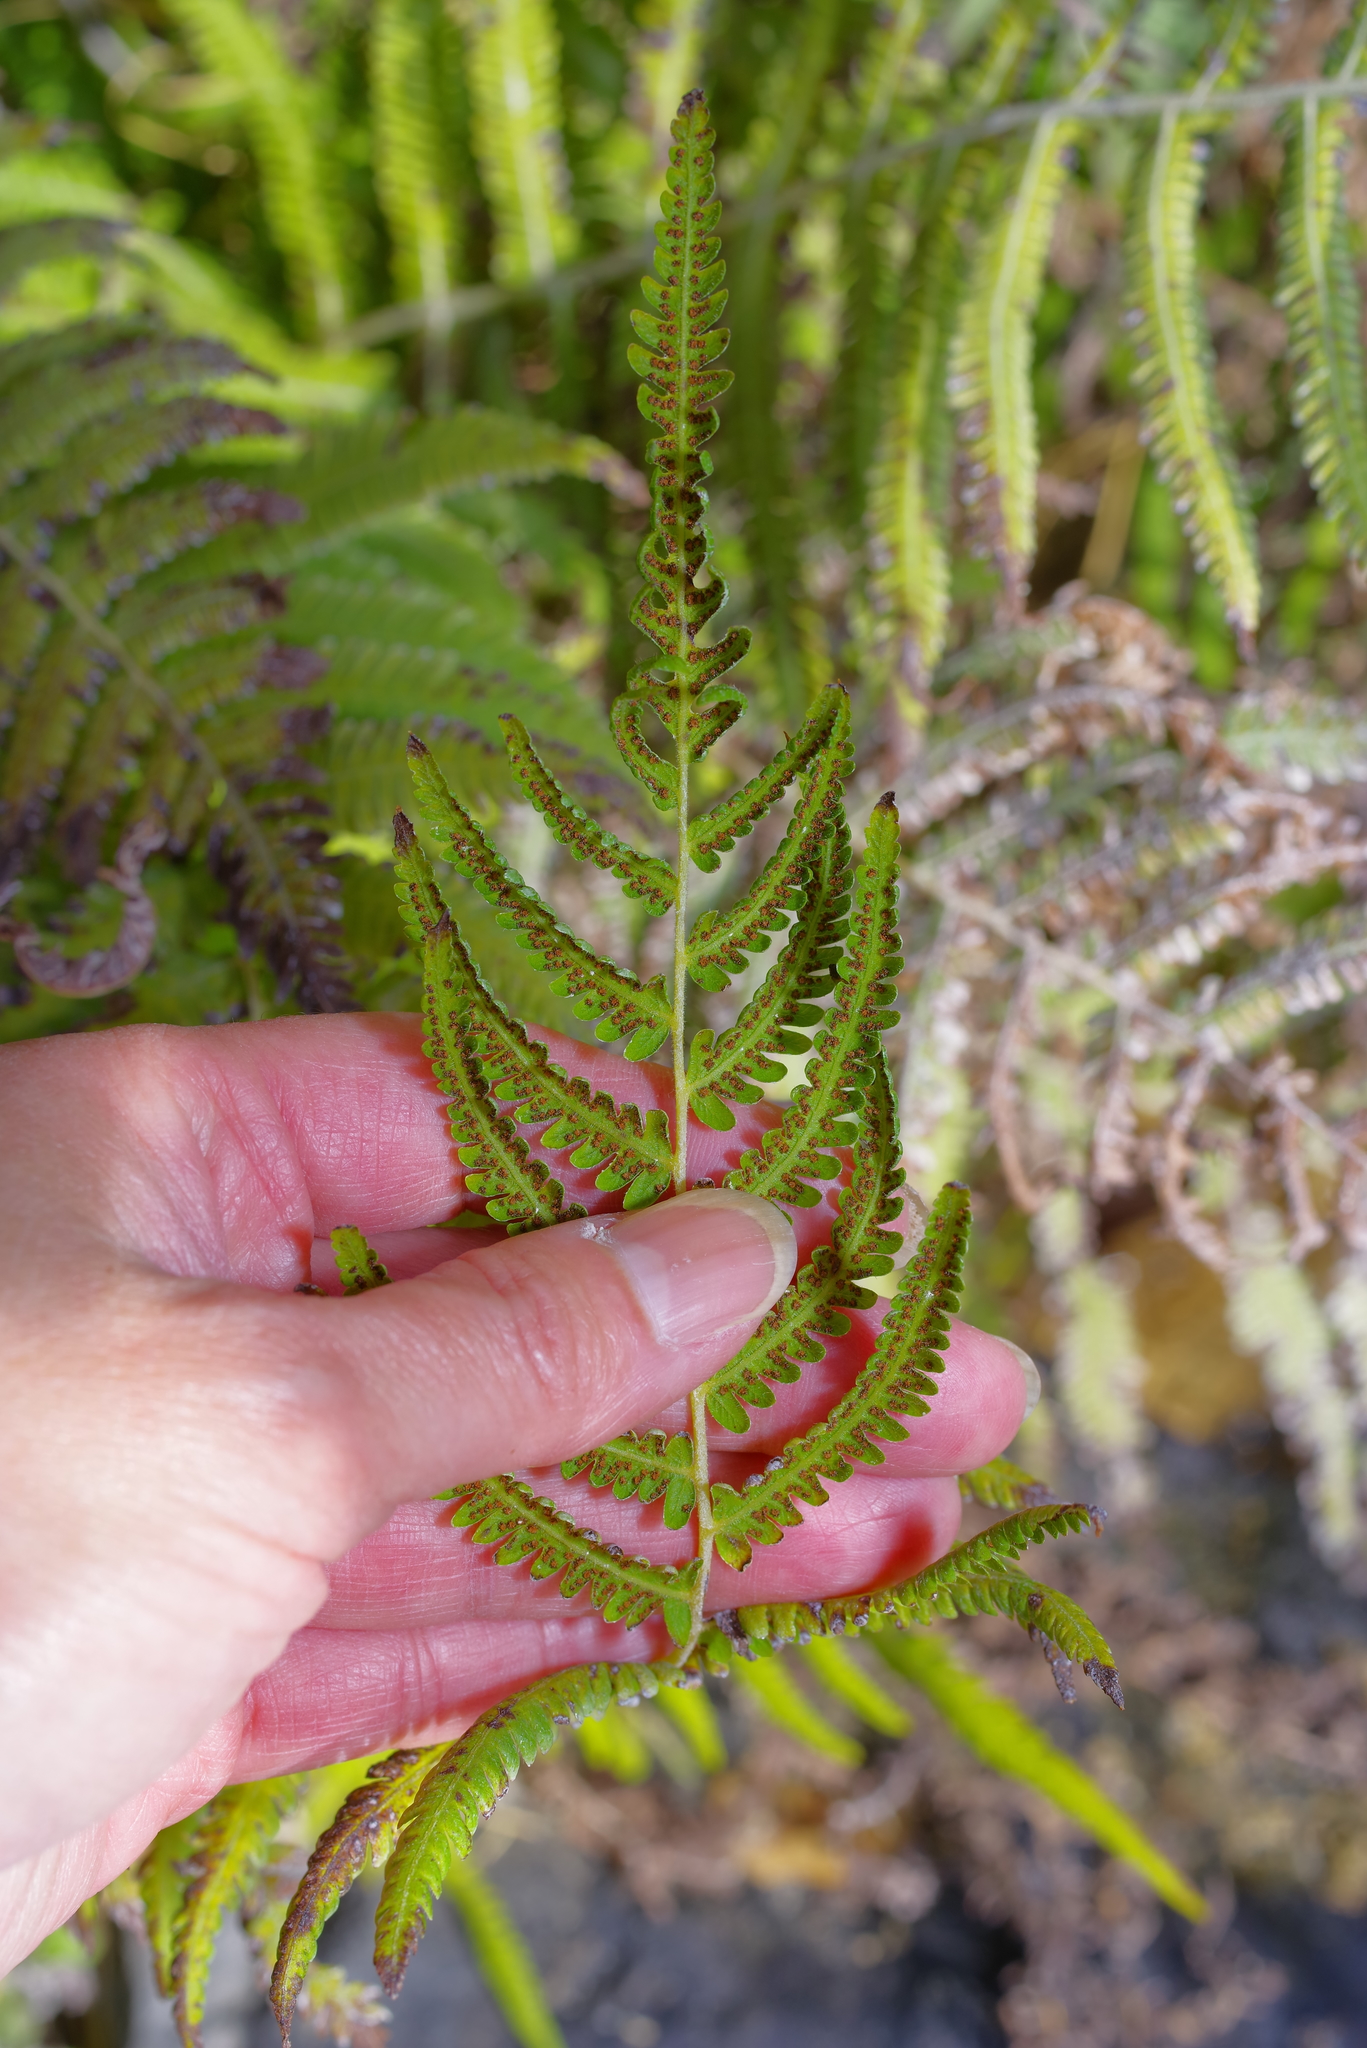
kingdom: Plantae
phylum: Tracheophyta
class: Polypodiopsida
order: Polypodiales
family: Thelypteridaceae
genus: Pelazoneuron
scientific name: Pelazoneuron kunthii
